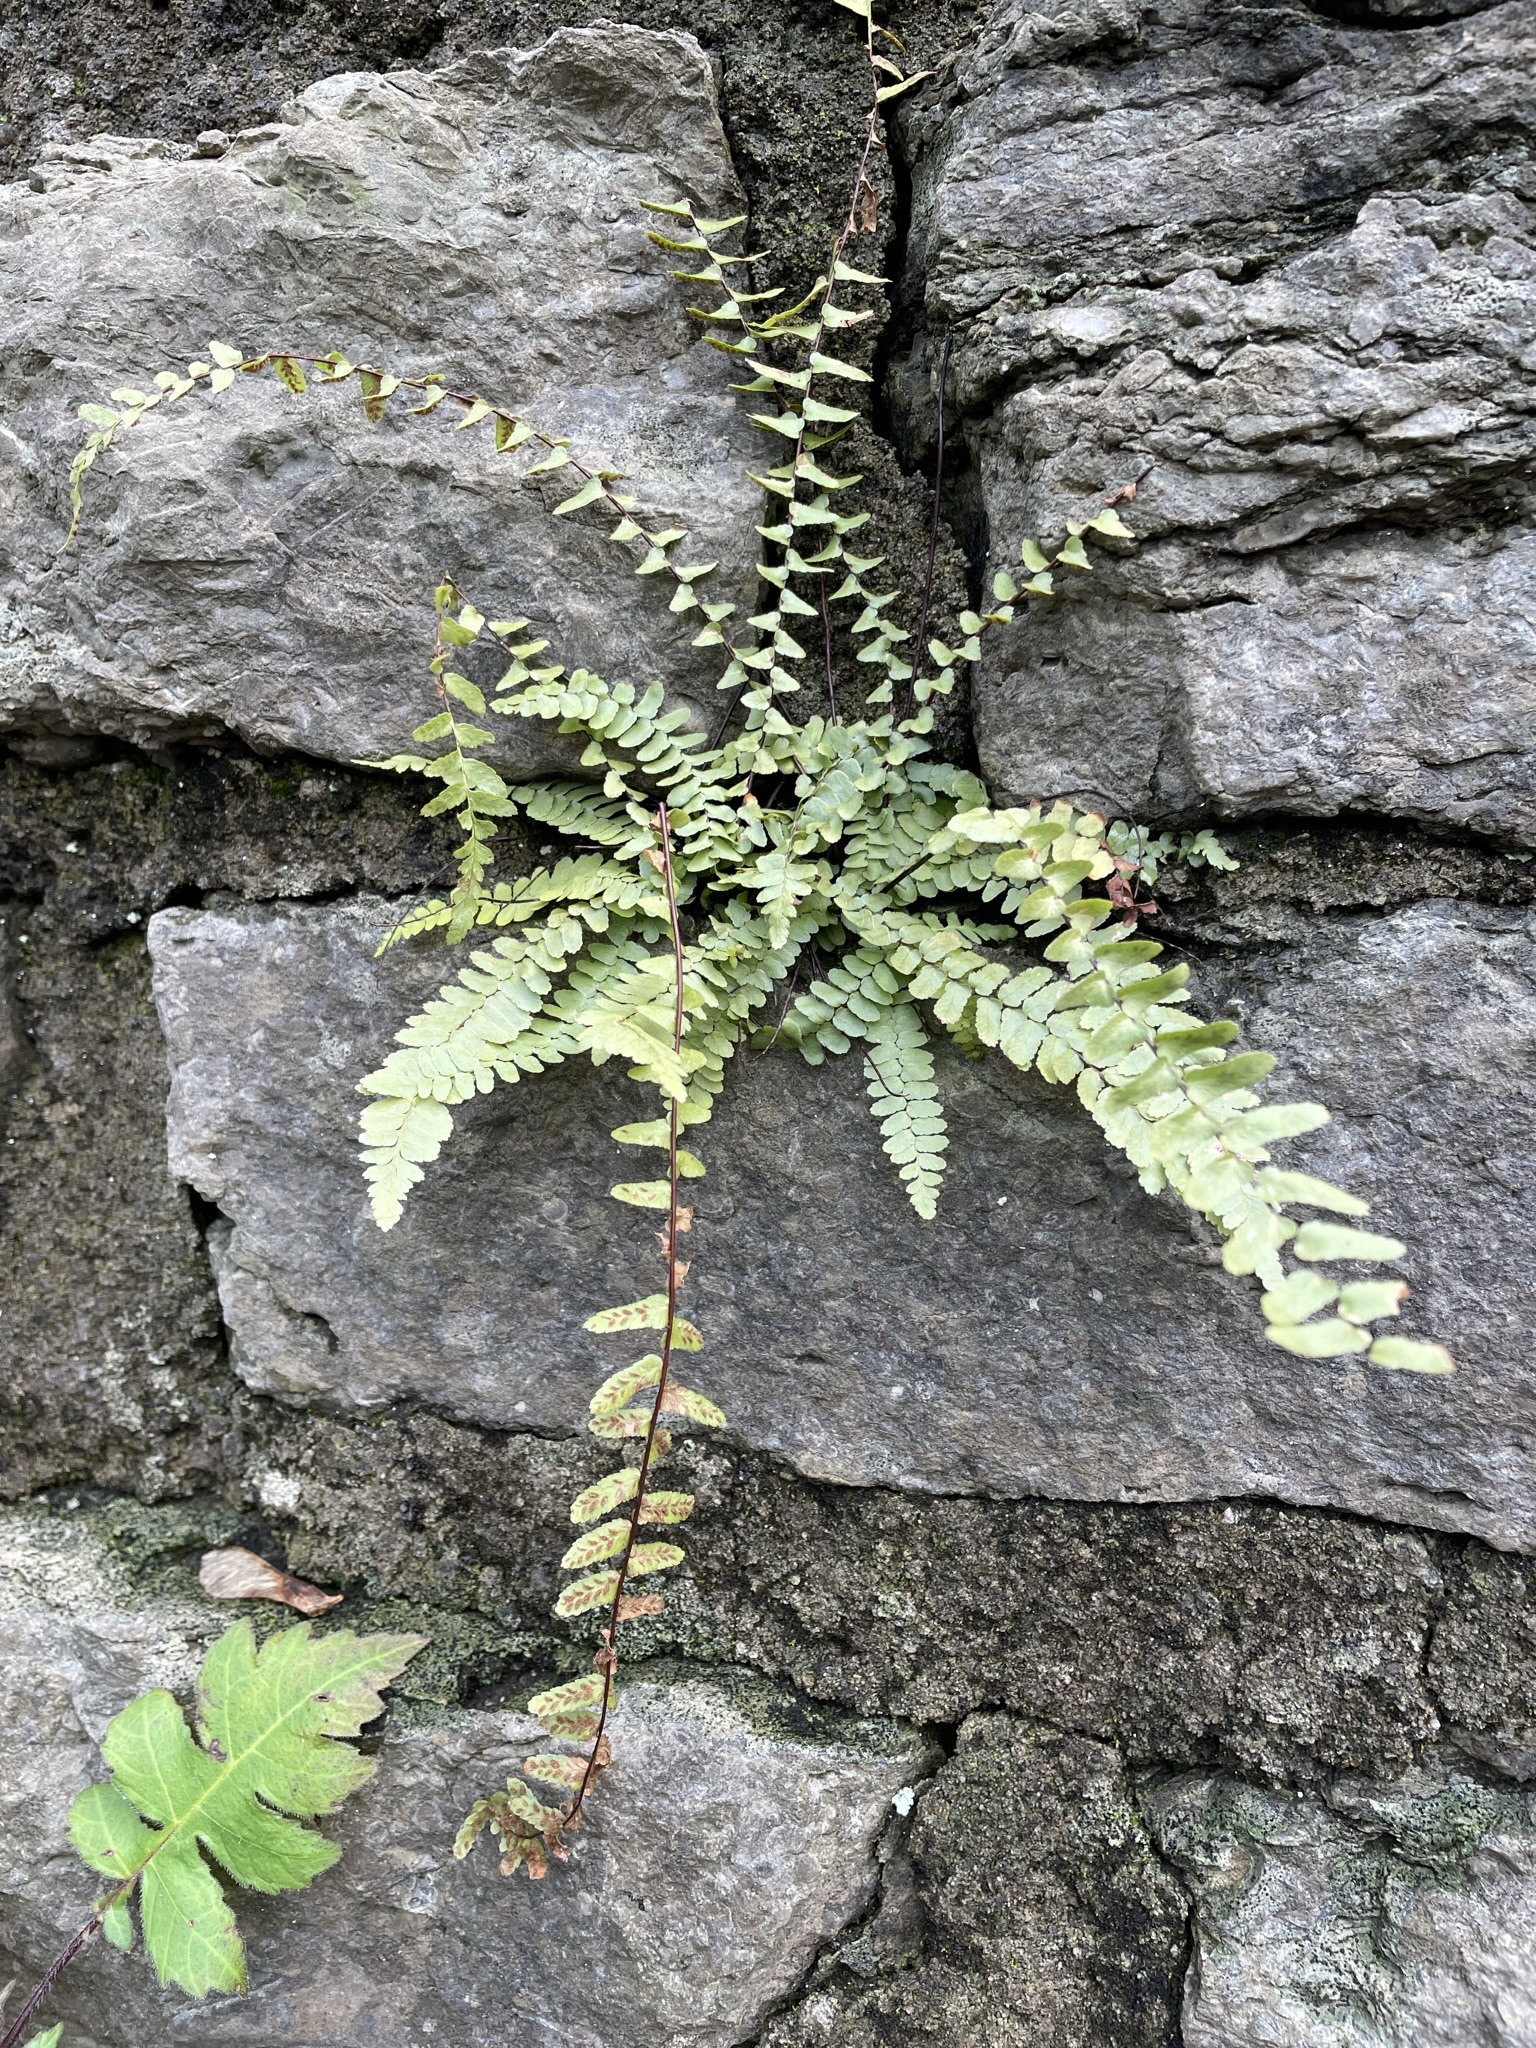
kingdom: Plantae
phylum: Tracheophyta
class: Polypodiopsida
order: Polypodiales
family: Aspleniaceae
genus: Asplenium
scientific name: Asplenium platyneuron
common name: Ebony spleenwort
